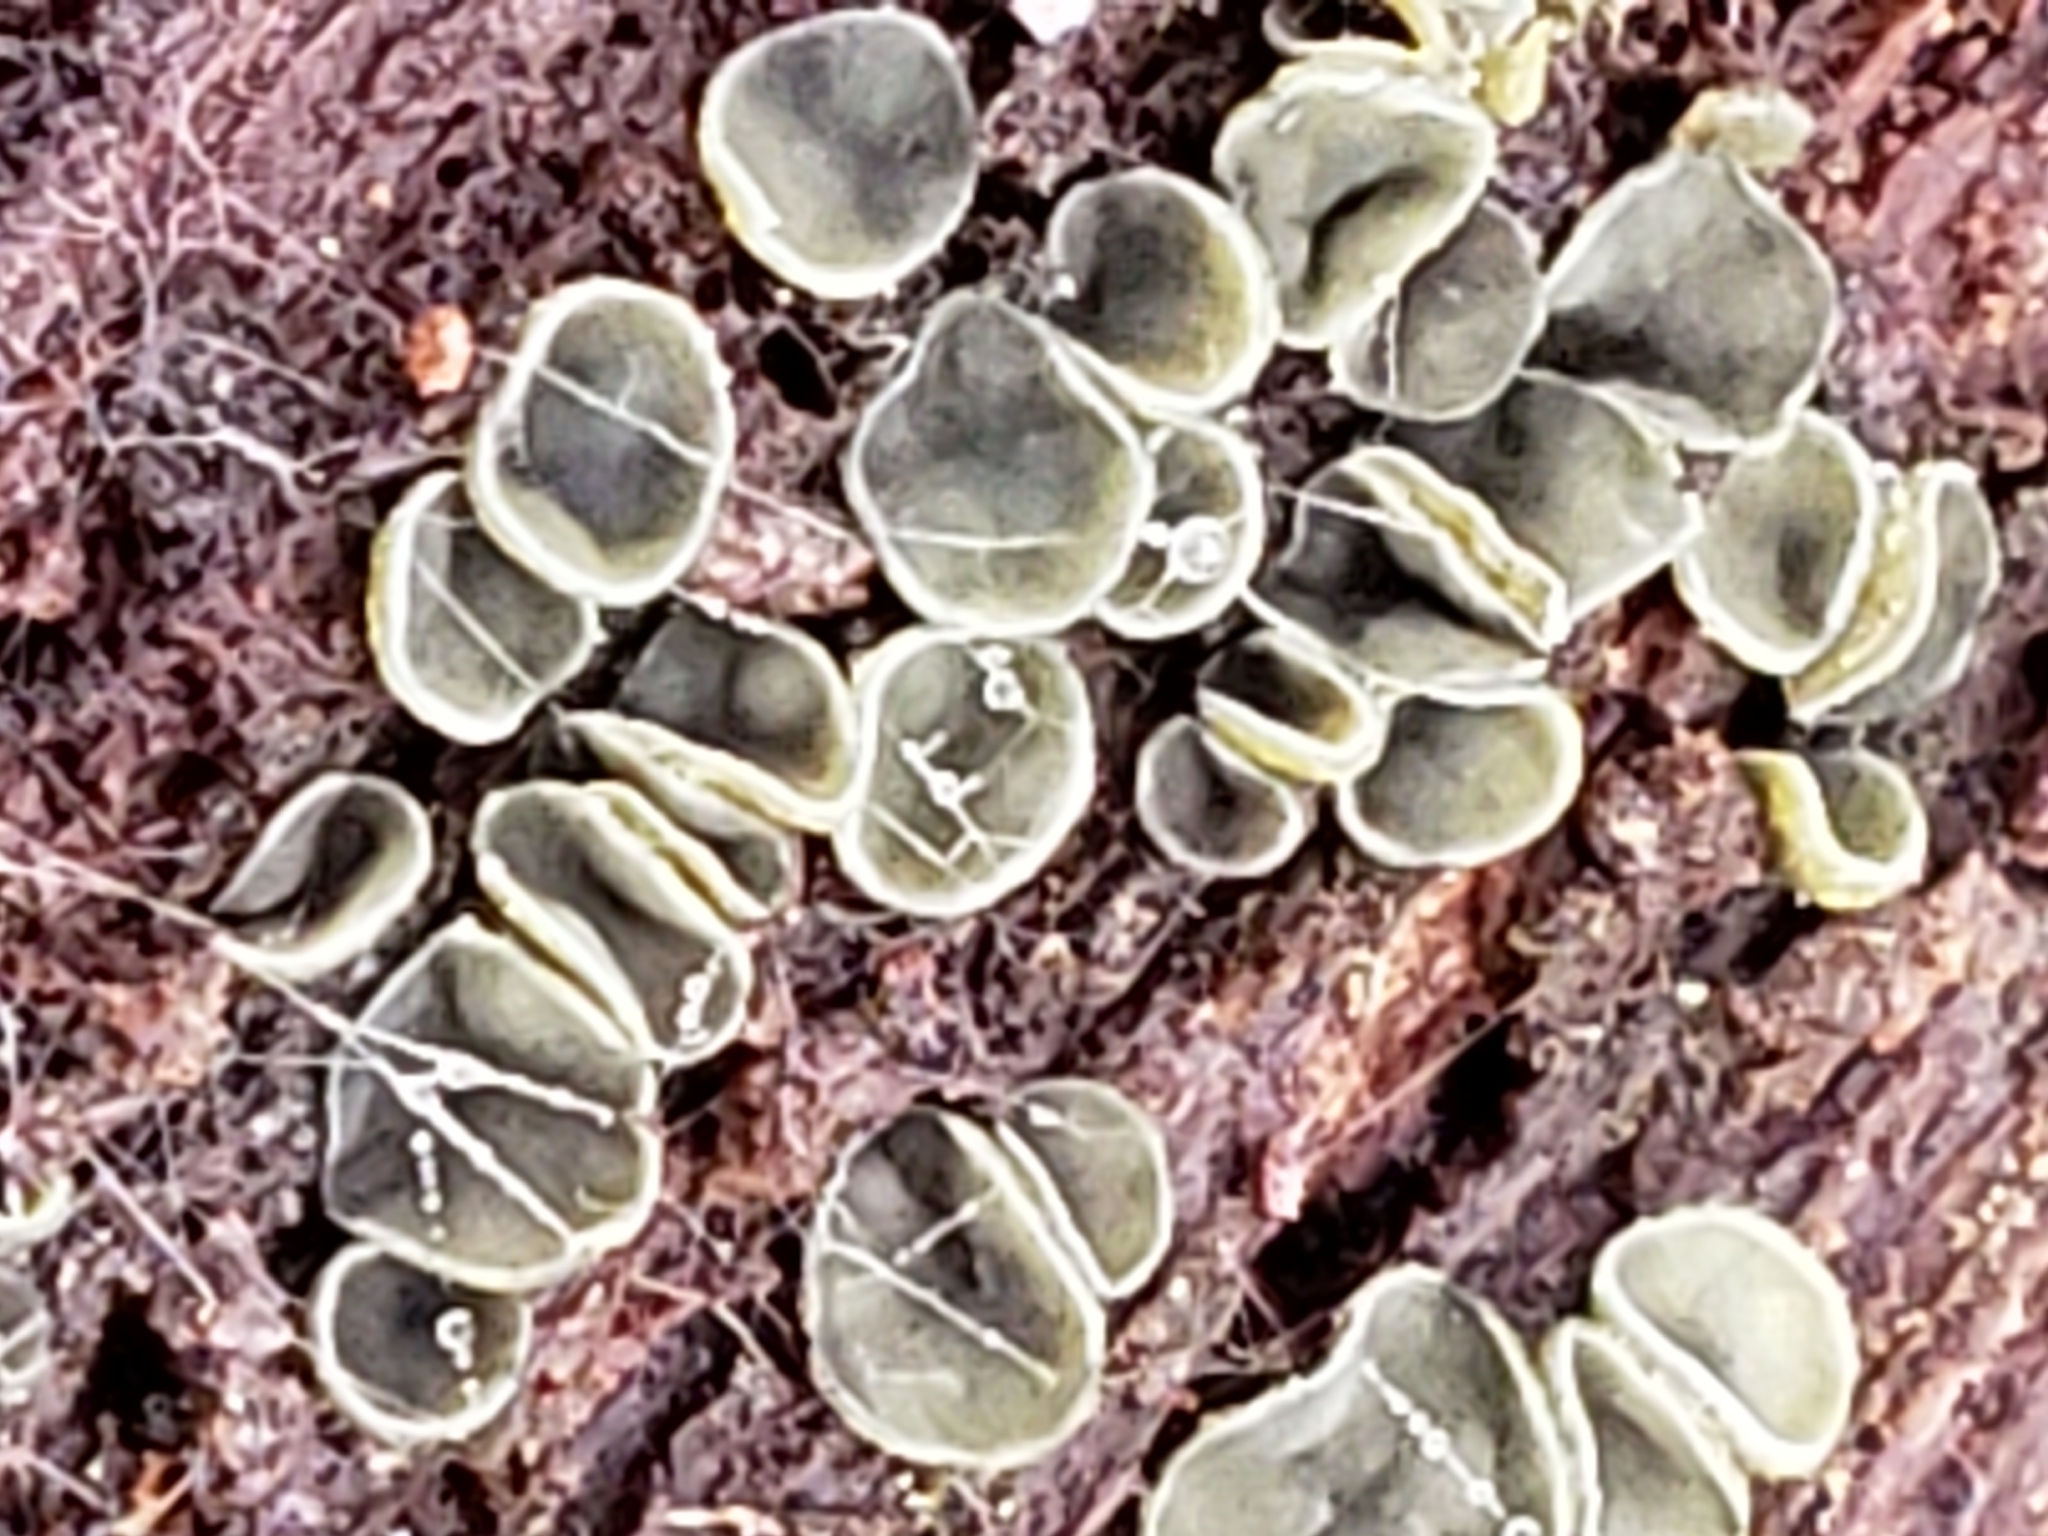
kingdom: Fungi
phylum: Ascomycota
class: Leotiomycetes
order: Helotiales
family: Chlorospleniaceae
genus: Chlorosplenium
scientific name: Chlorosplenium chlora
